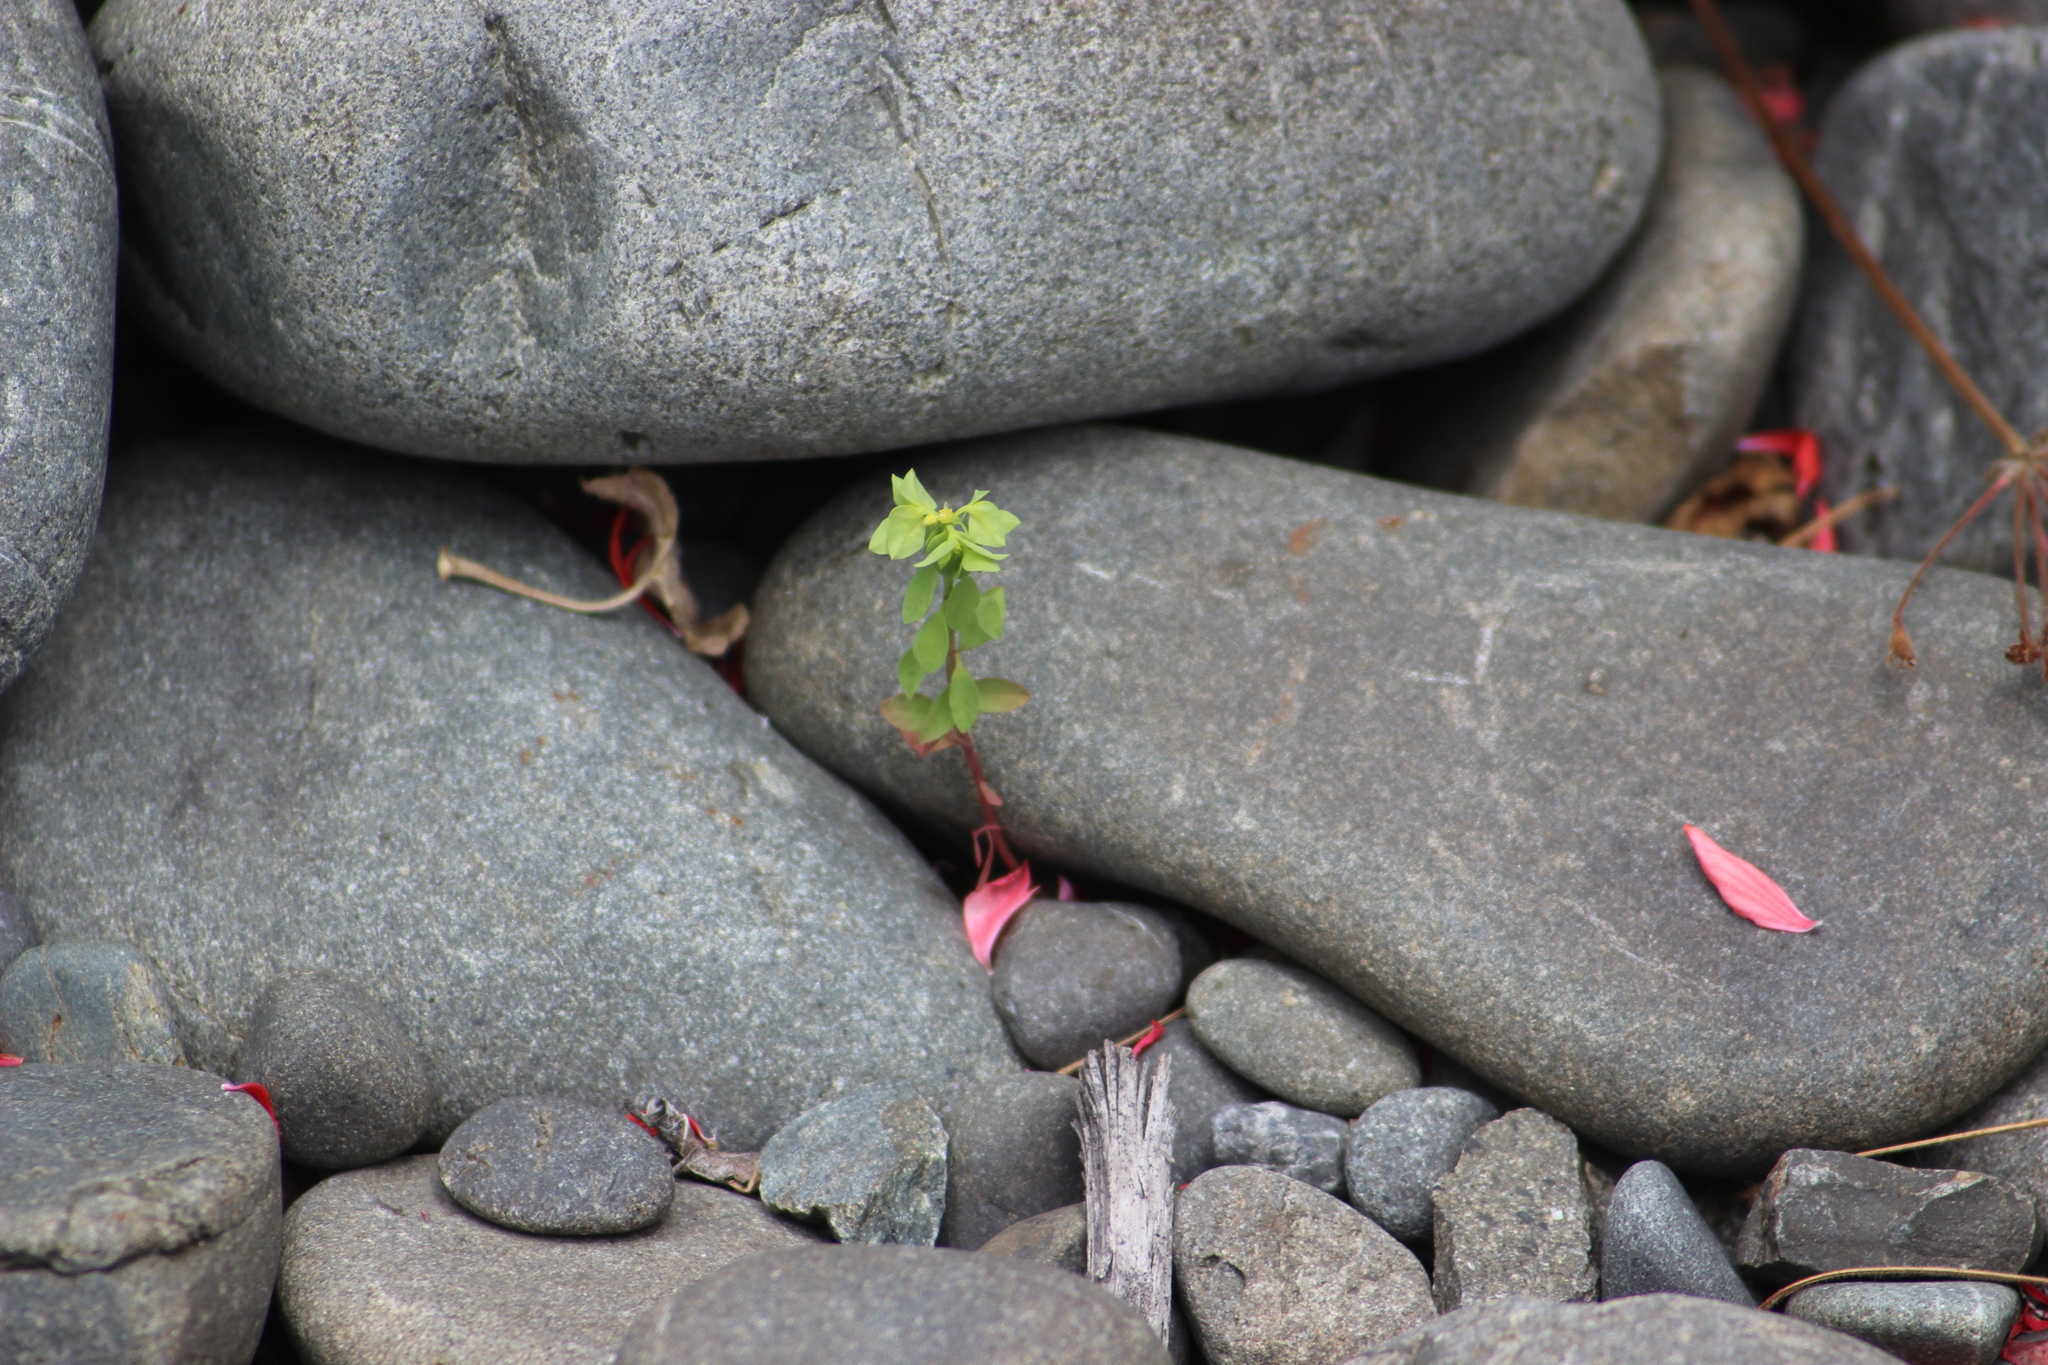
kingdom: Plantae
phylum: Tracheophyta
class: Magnoliopsida
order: Malpighiales
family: Euphorbiaceae
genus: Euphorbia
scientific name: Euphorbia peplus
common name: Petty spurge
